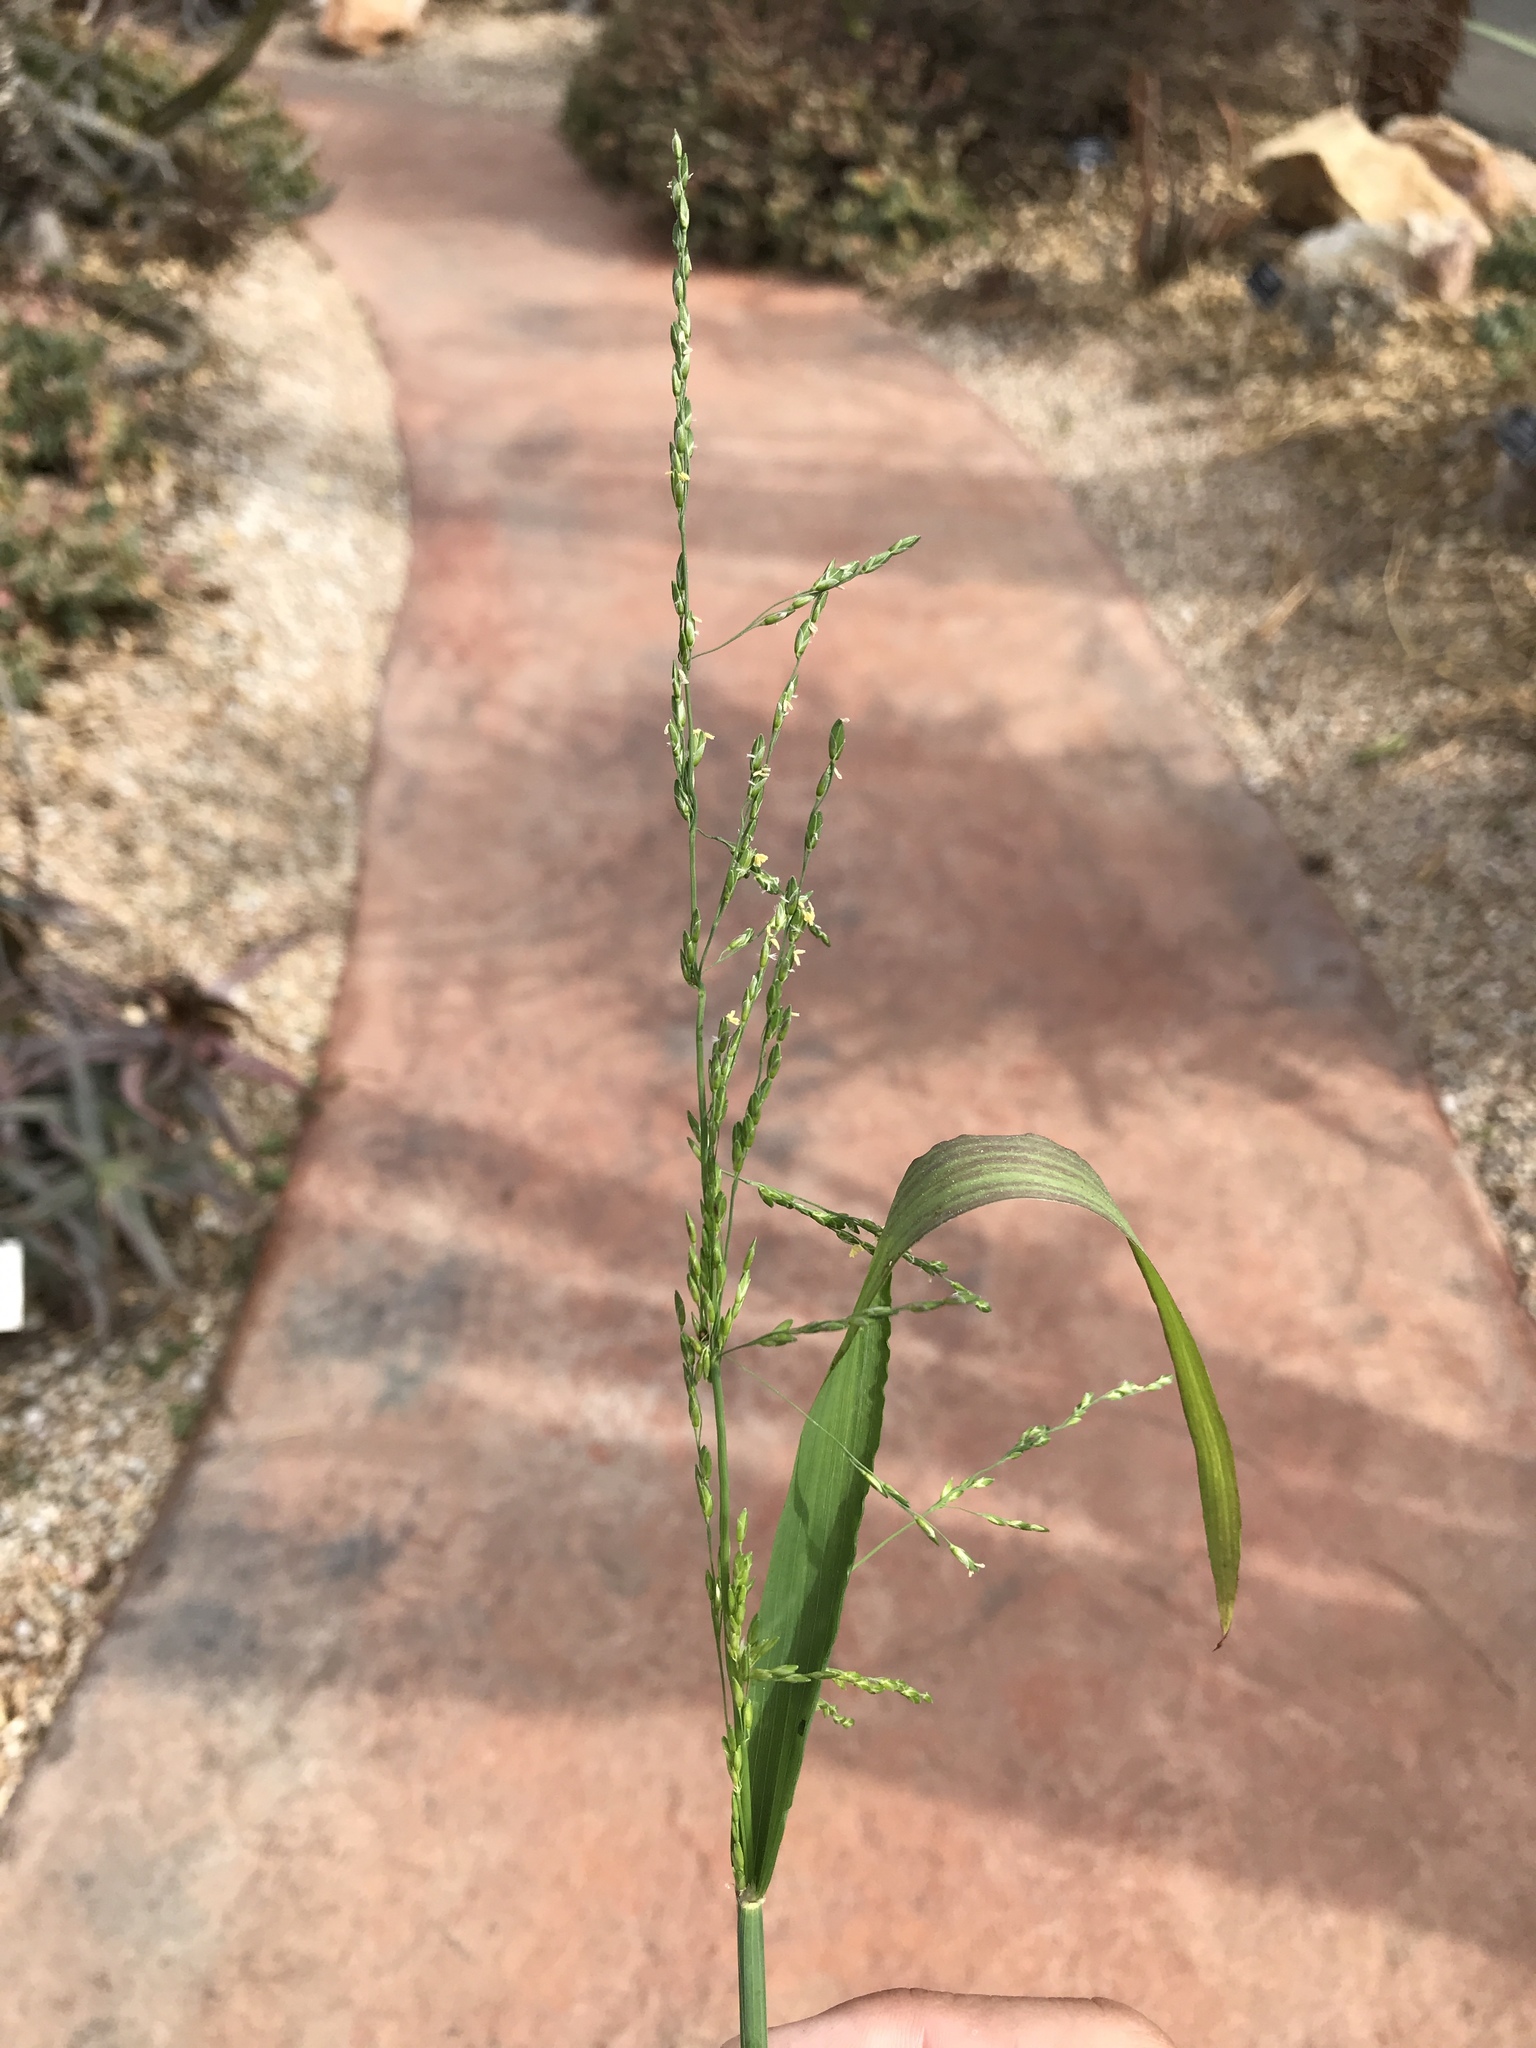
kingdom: Plantae
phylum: Tracheophyta
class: Liliopsida
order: Poales
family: Poaceae
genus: Ehrharta
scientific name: Ehrharta erecta
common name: Panic veldtgrass
